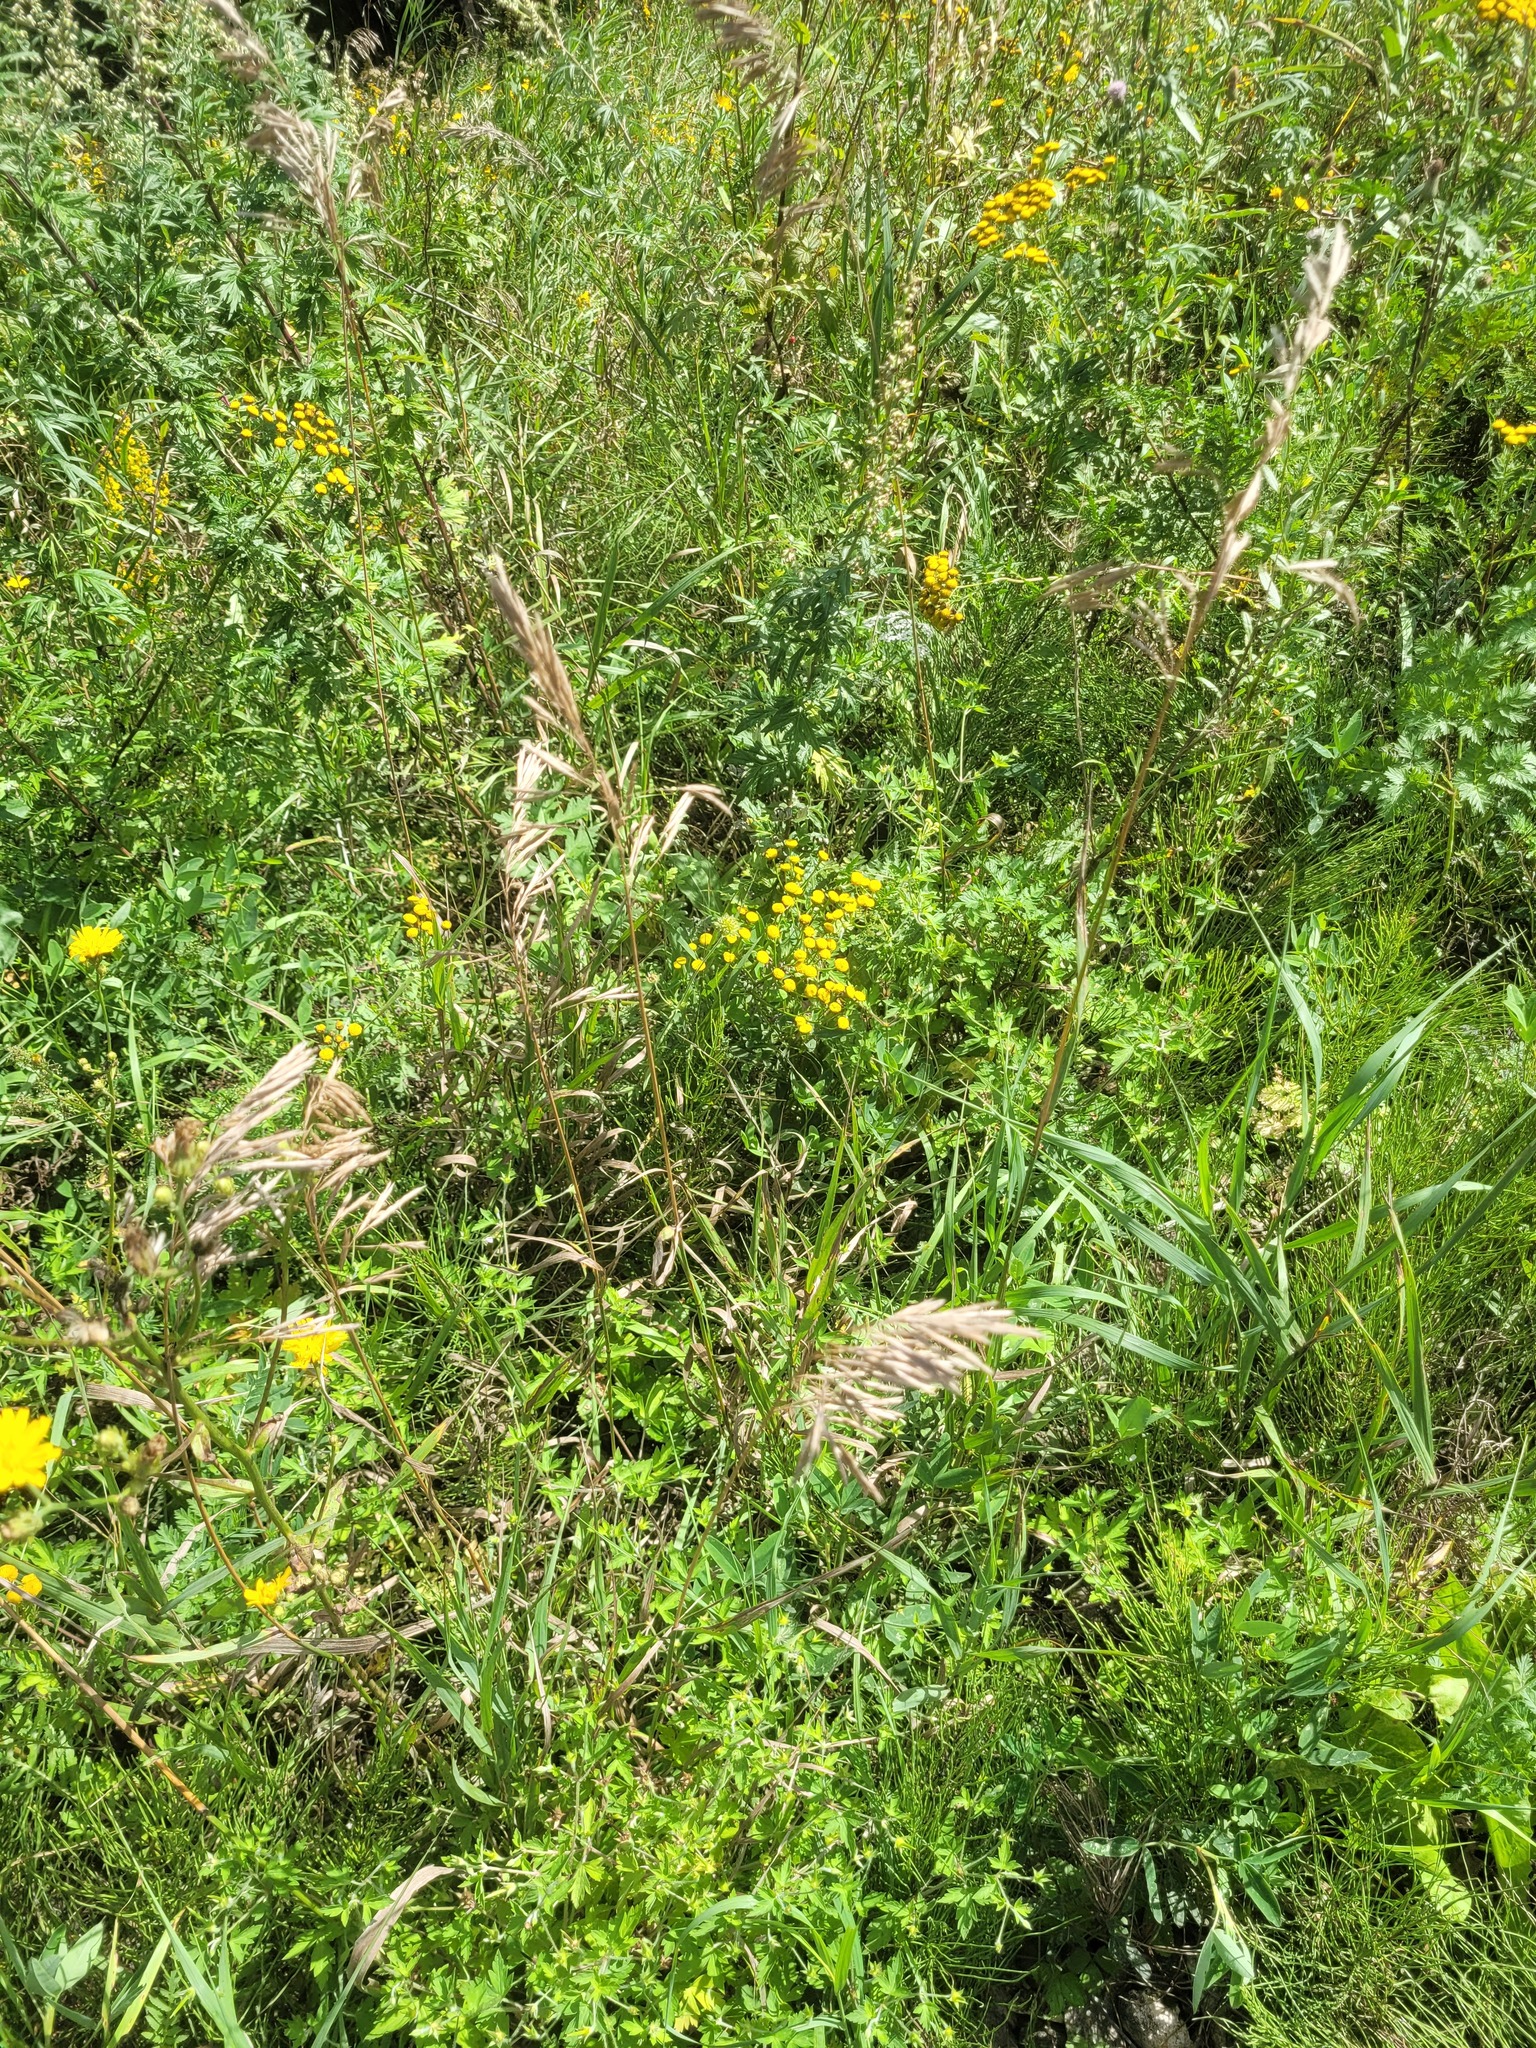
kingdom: Plantae
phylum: Tracheophyta
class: Magnoliopsida
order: Asterales
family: Asteraceae
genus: Tanacetum
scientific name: Tanacetum vulgare
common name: Common tansy
